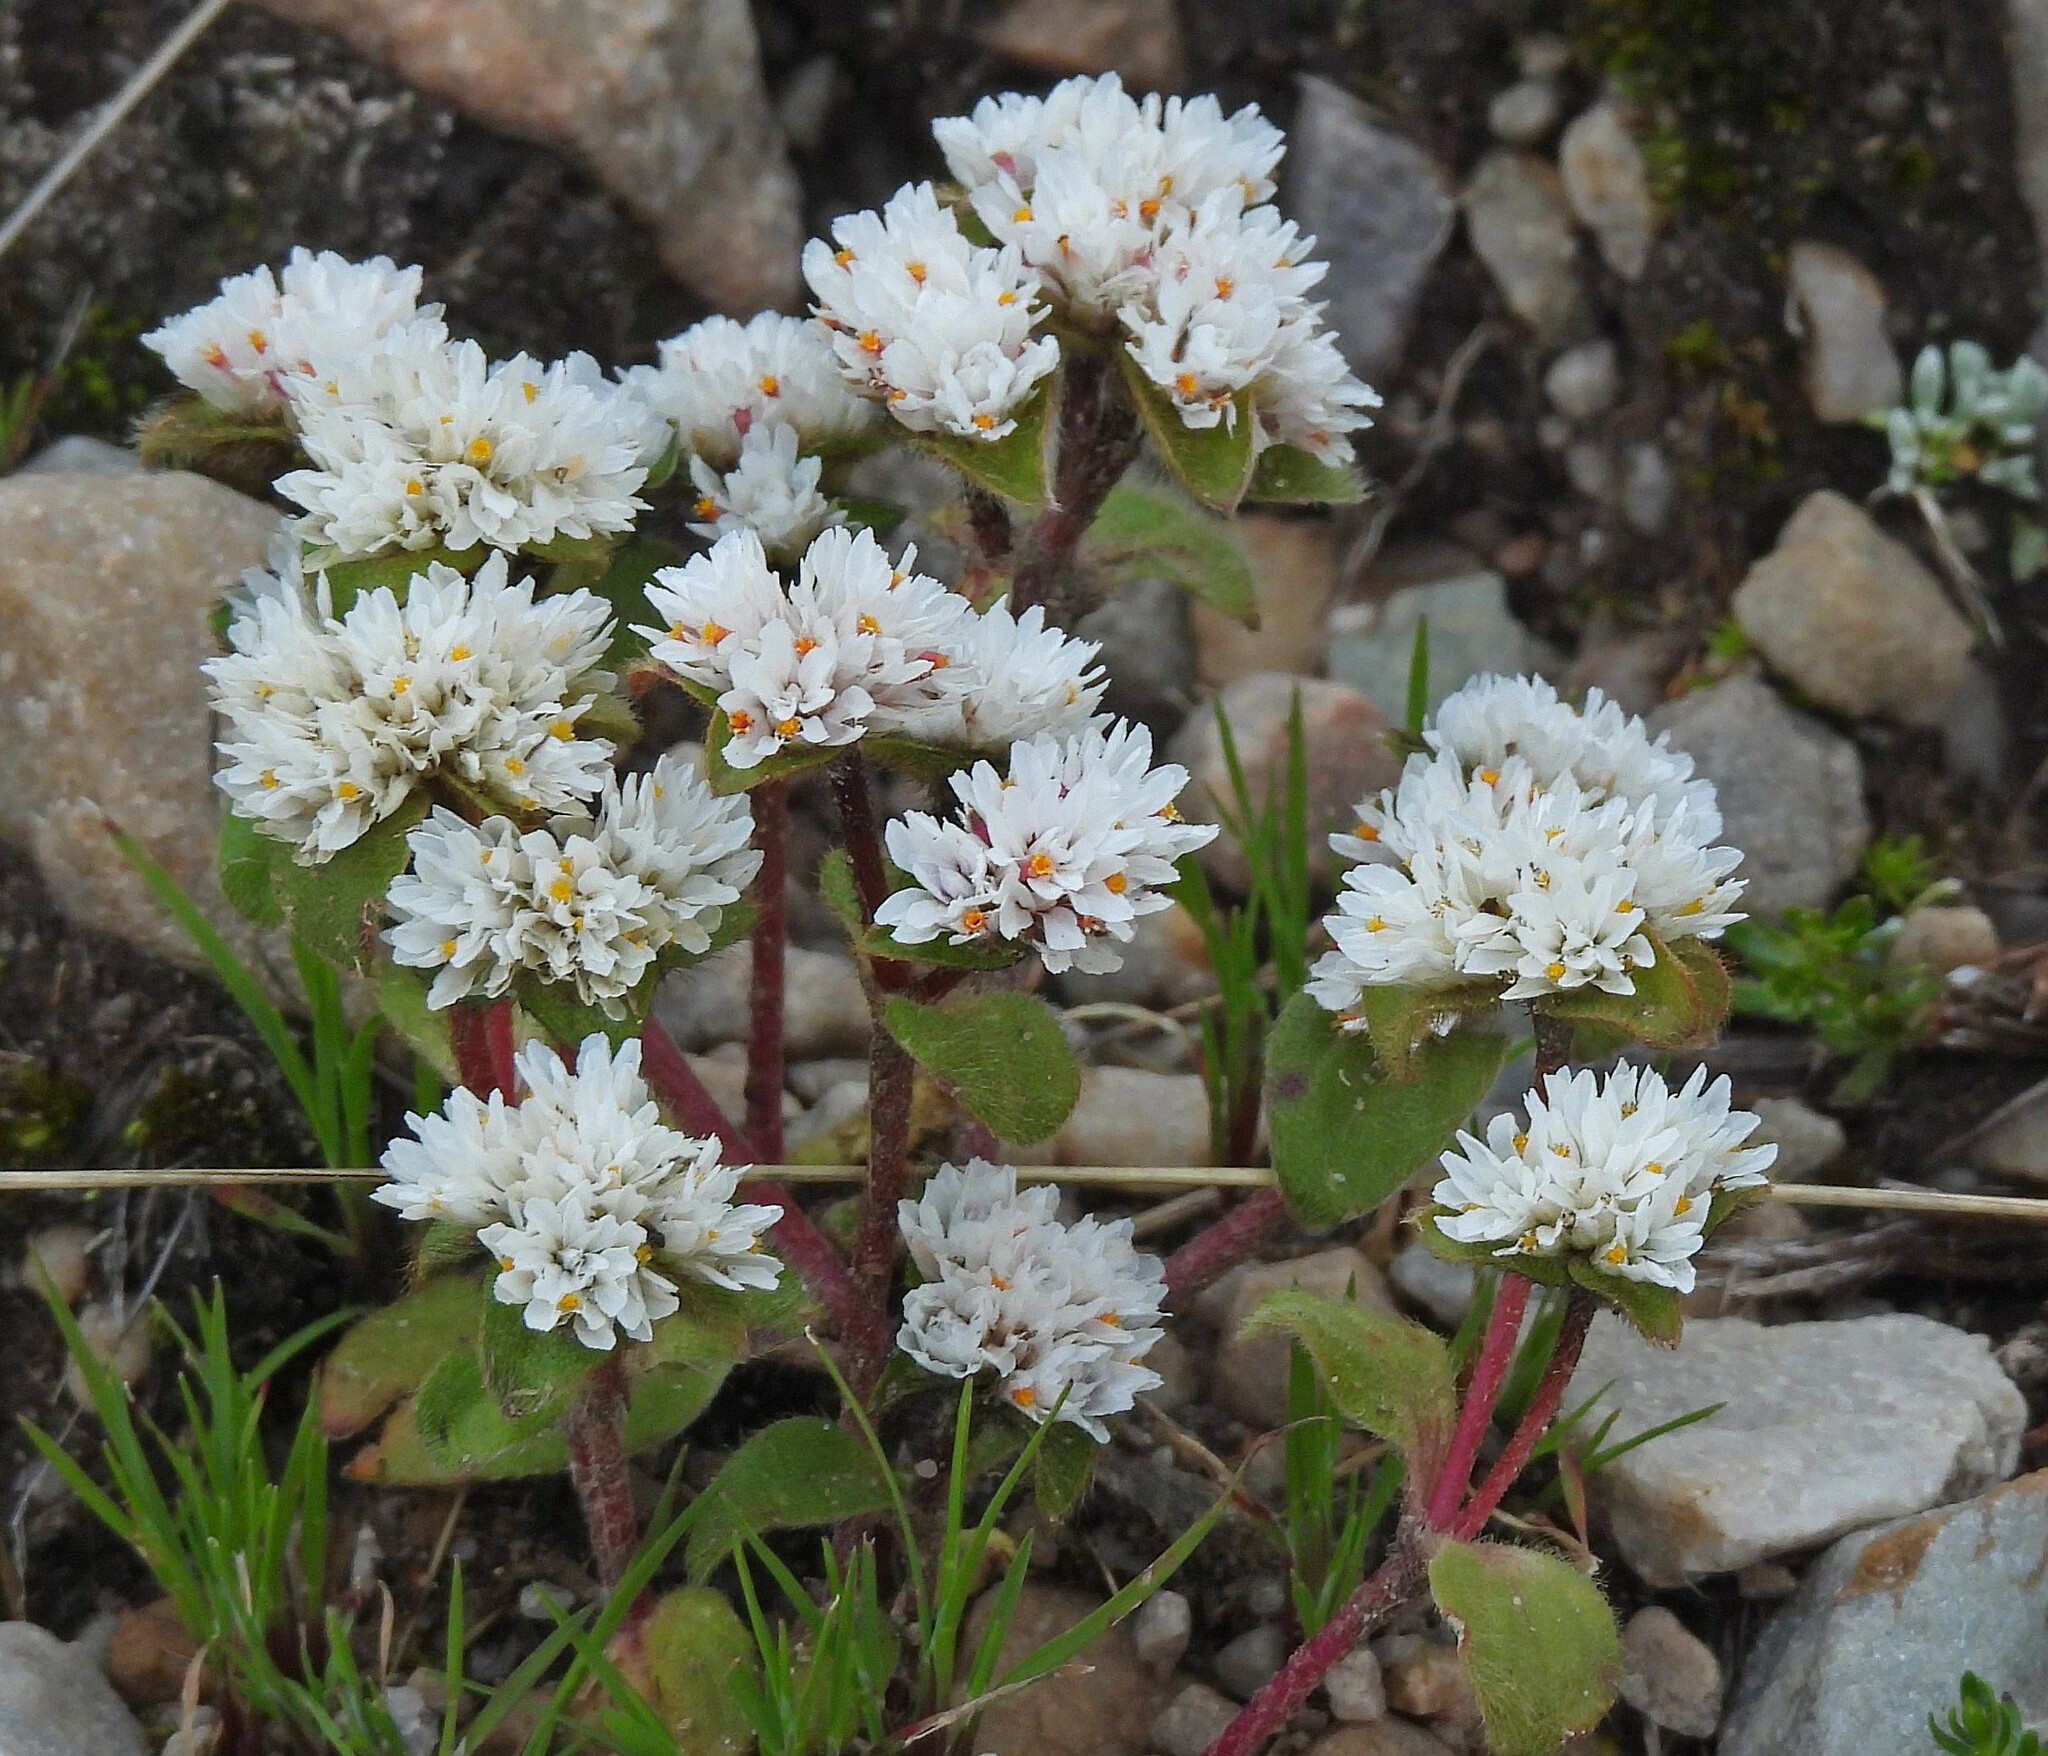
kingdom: Plantae
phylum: Tracheophyta
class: Magnoliopsida
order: Caryophyllales
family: Amaranthaceae
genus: Gomphrena
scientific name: Gomphrena phaeotricha
